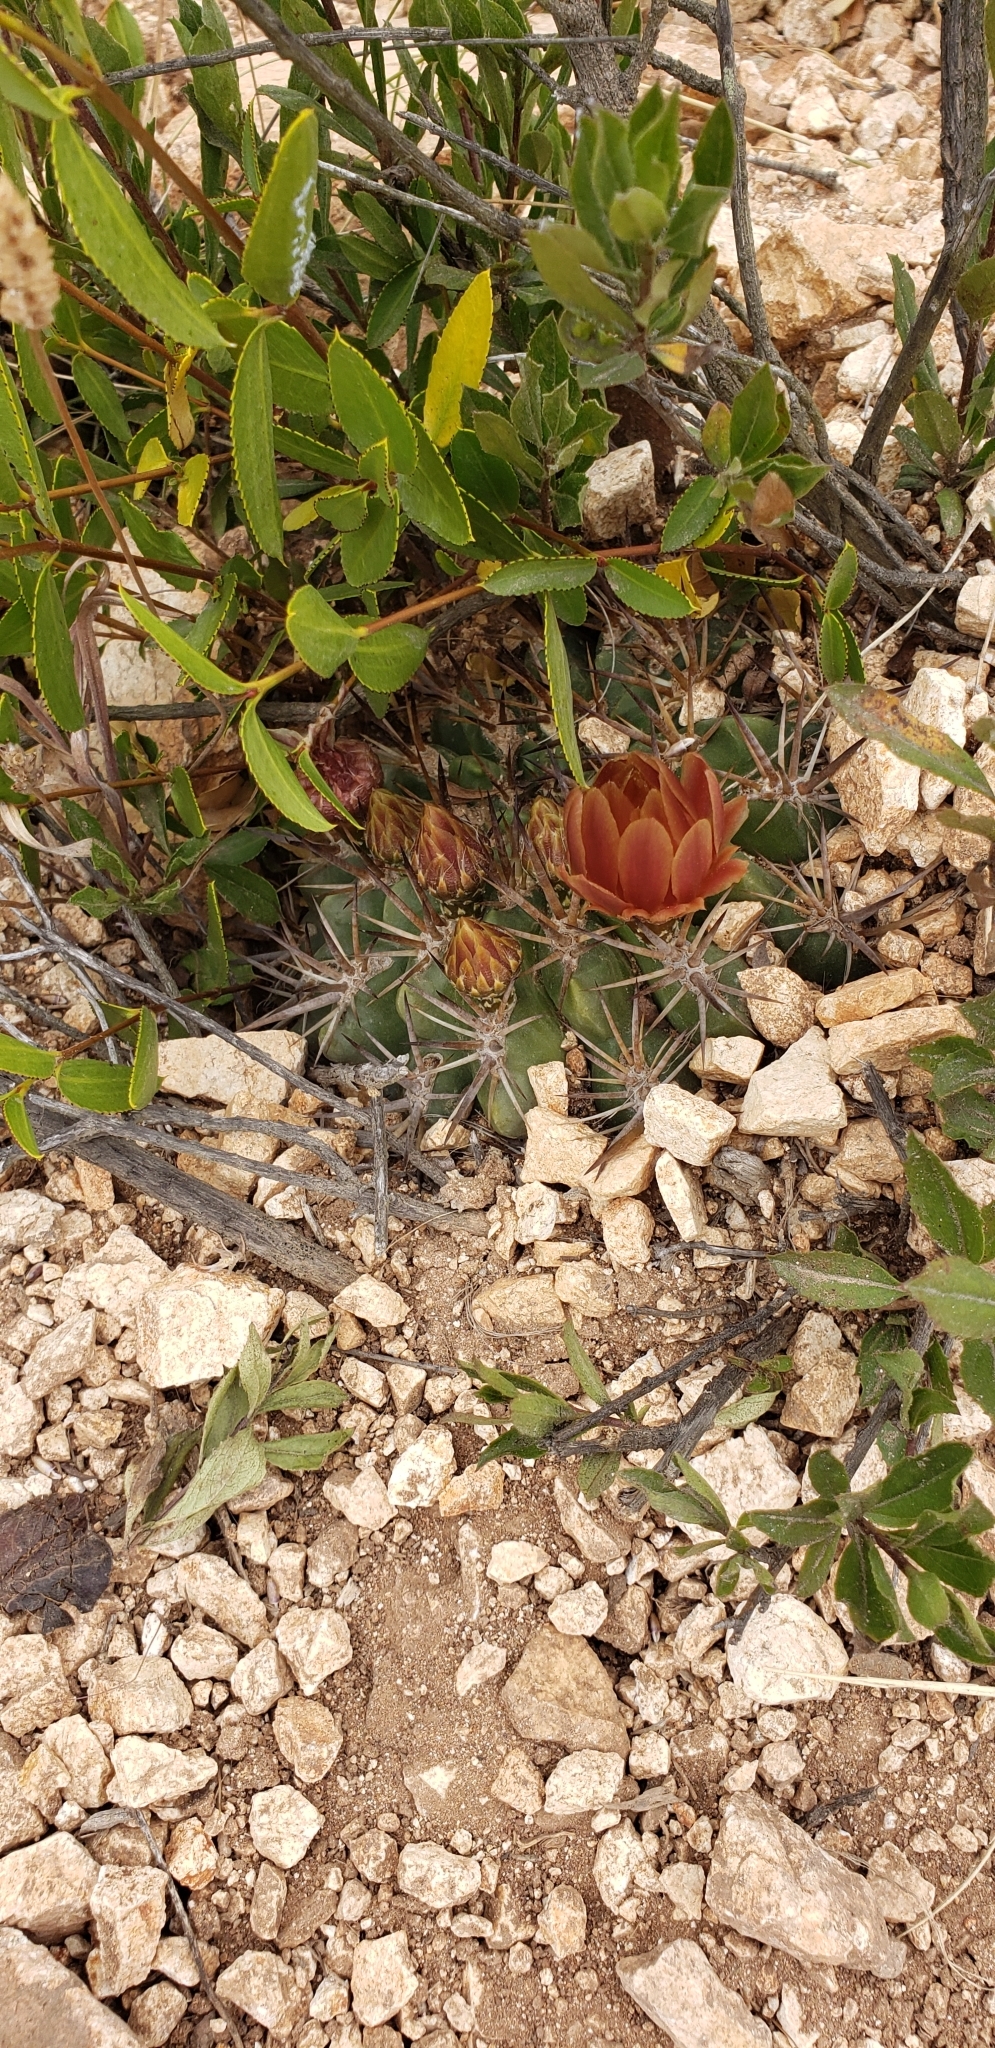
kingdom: Plantae
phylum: Tracheophyta
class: Magnoliopsida
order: Caryophyllales
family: Cactaceae
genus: Eriosyce
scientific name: Eriosyce
